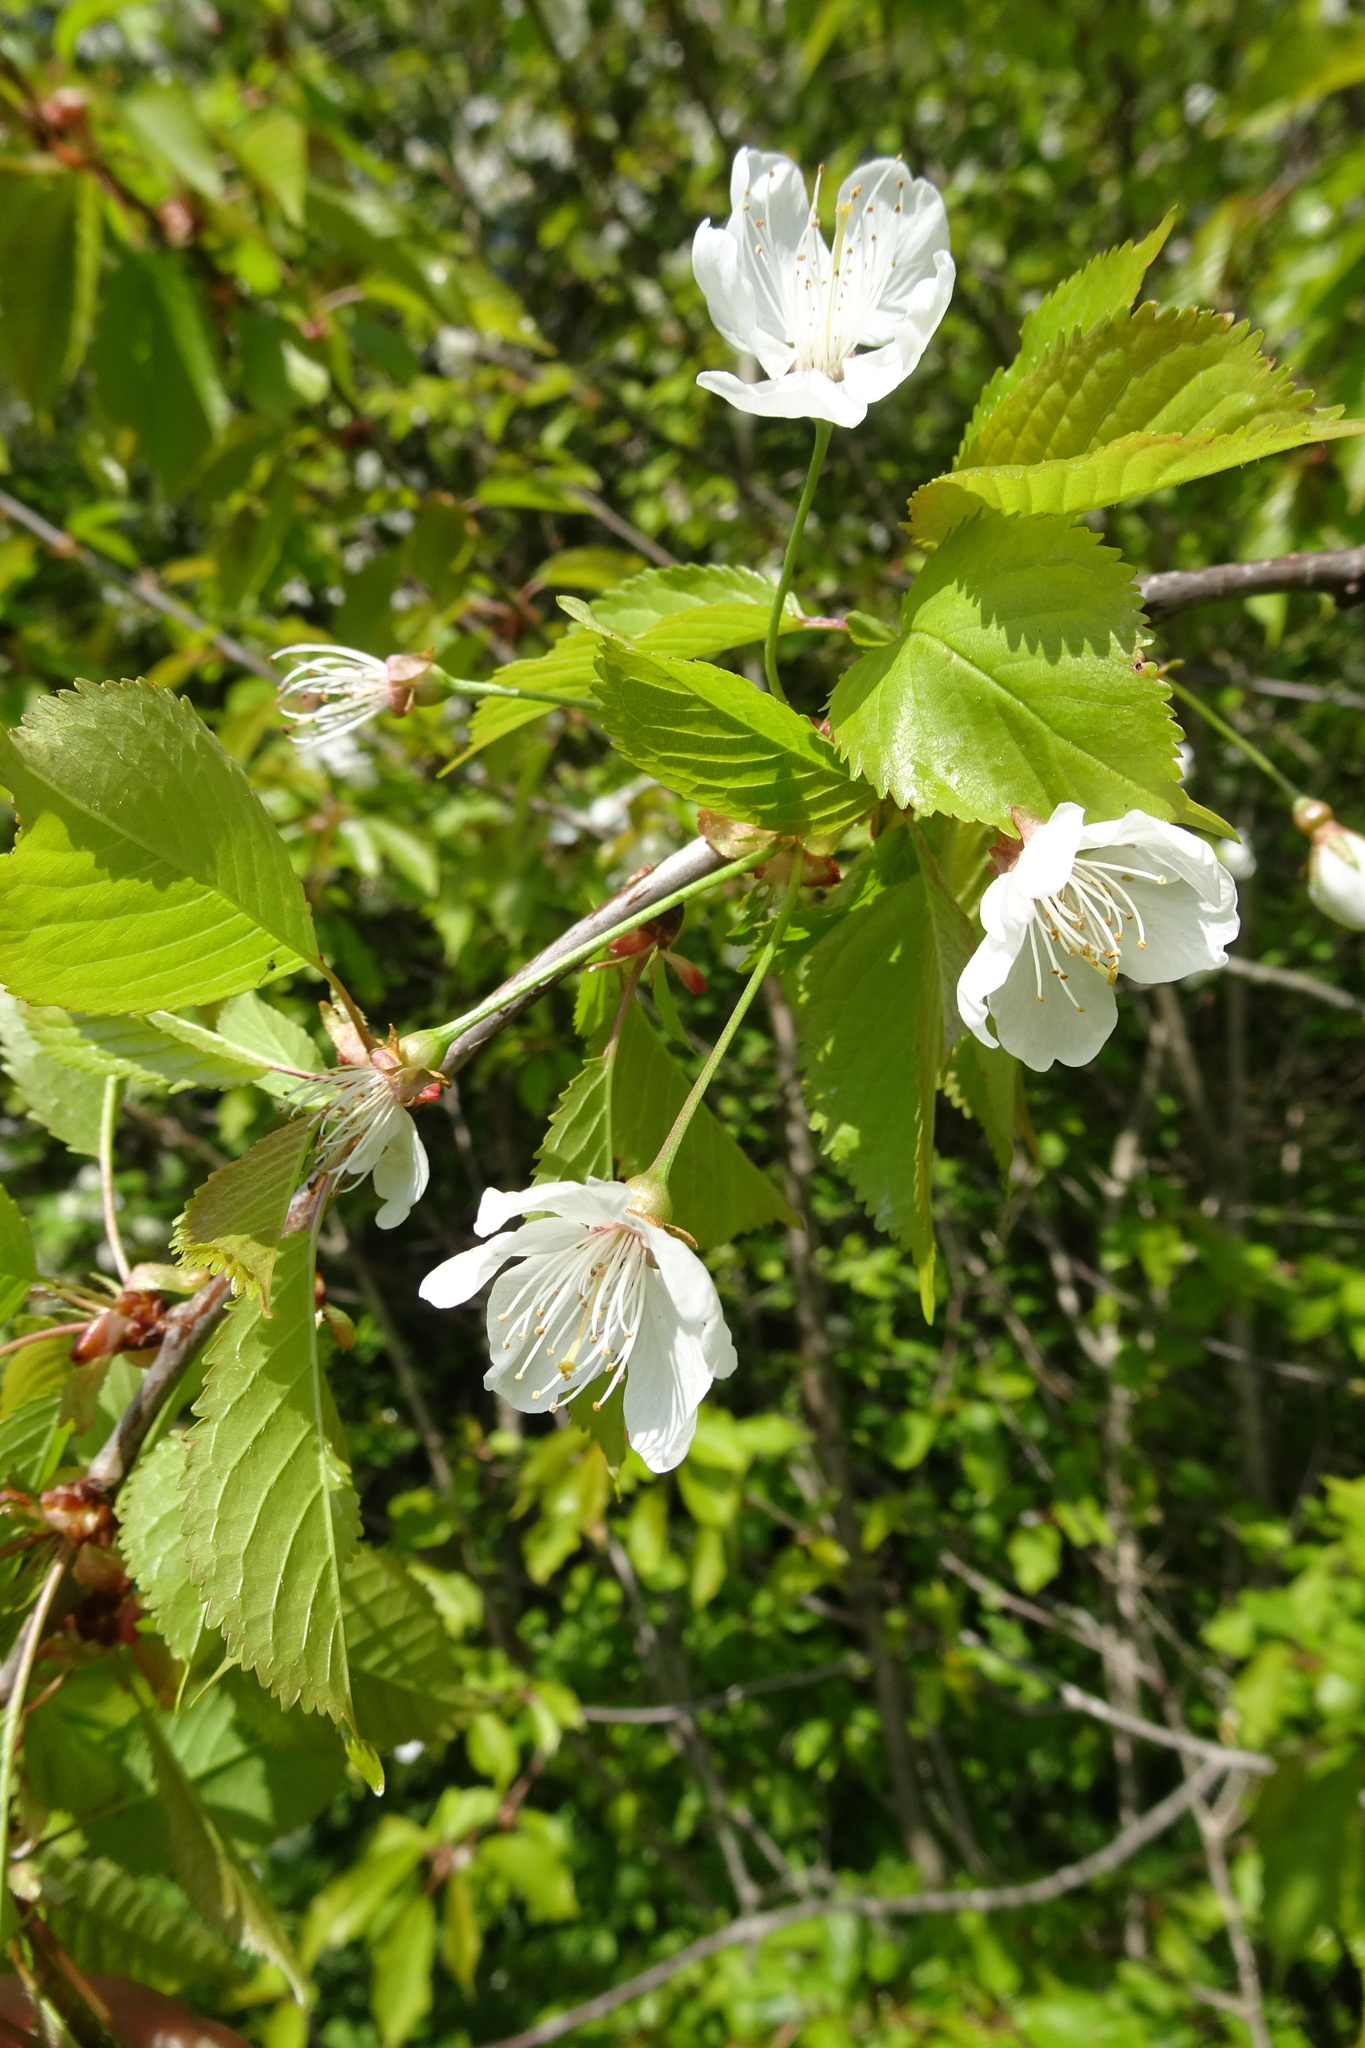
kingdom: Plantae
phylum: Tracheophyta
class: Magnoliopsida
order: Rosales
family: Rosaceae
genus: Prunus
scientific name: Prunus avium
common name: Sweet cherry
